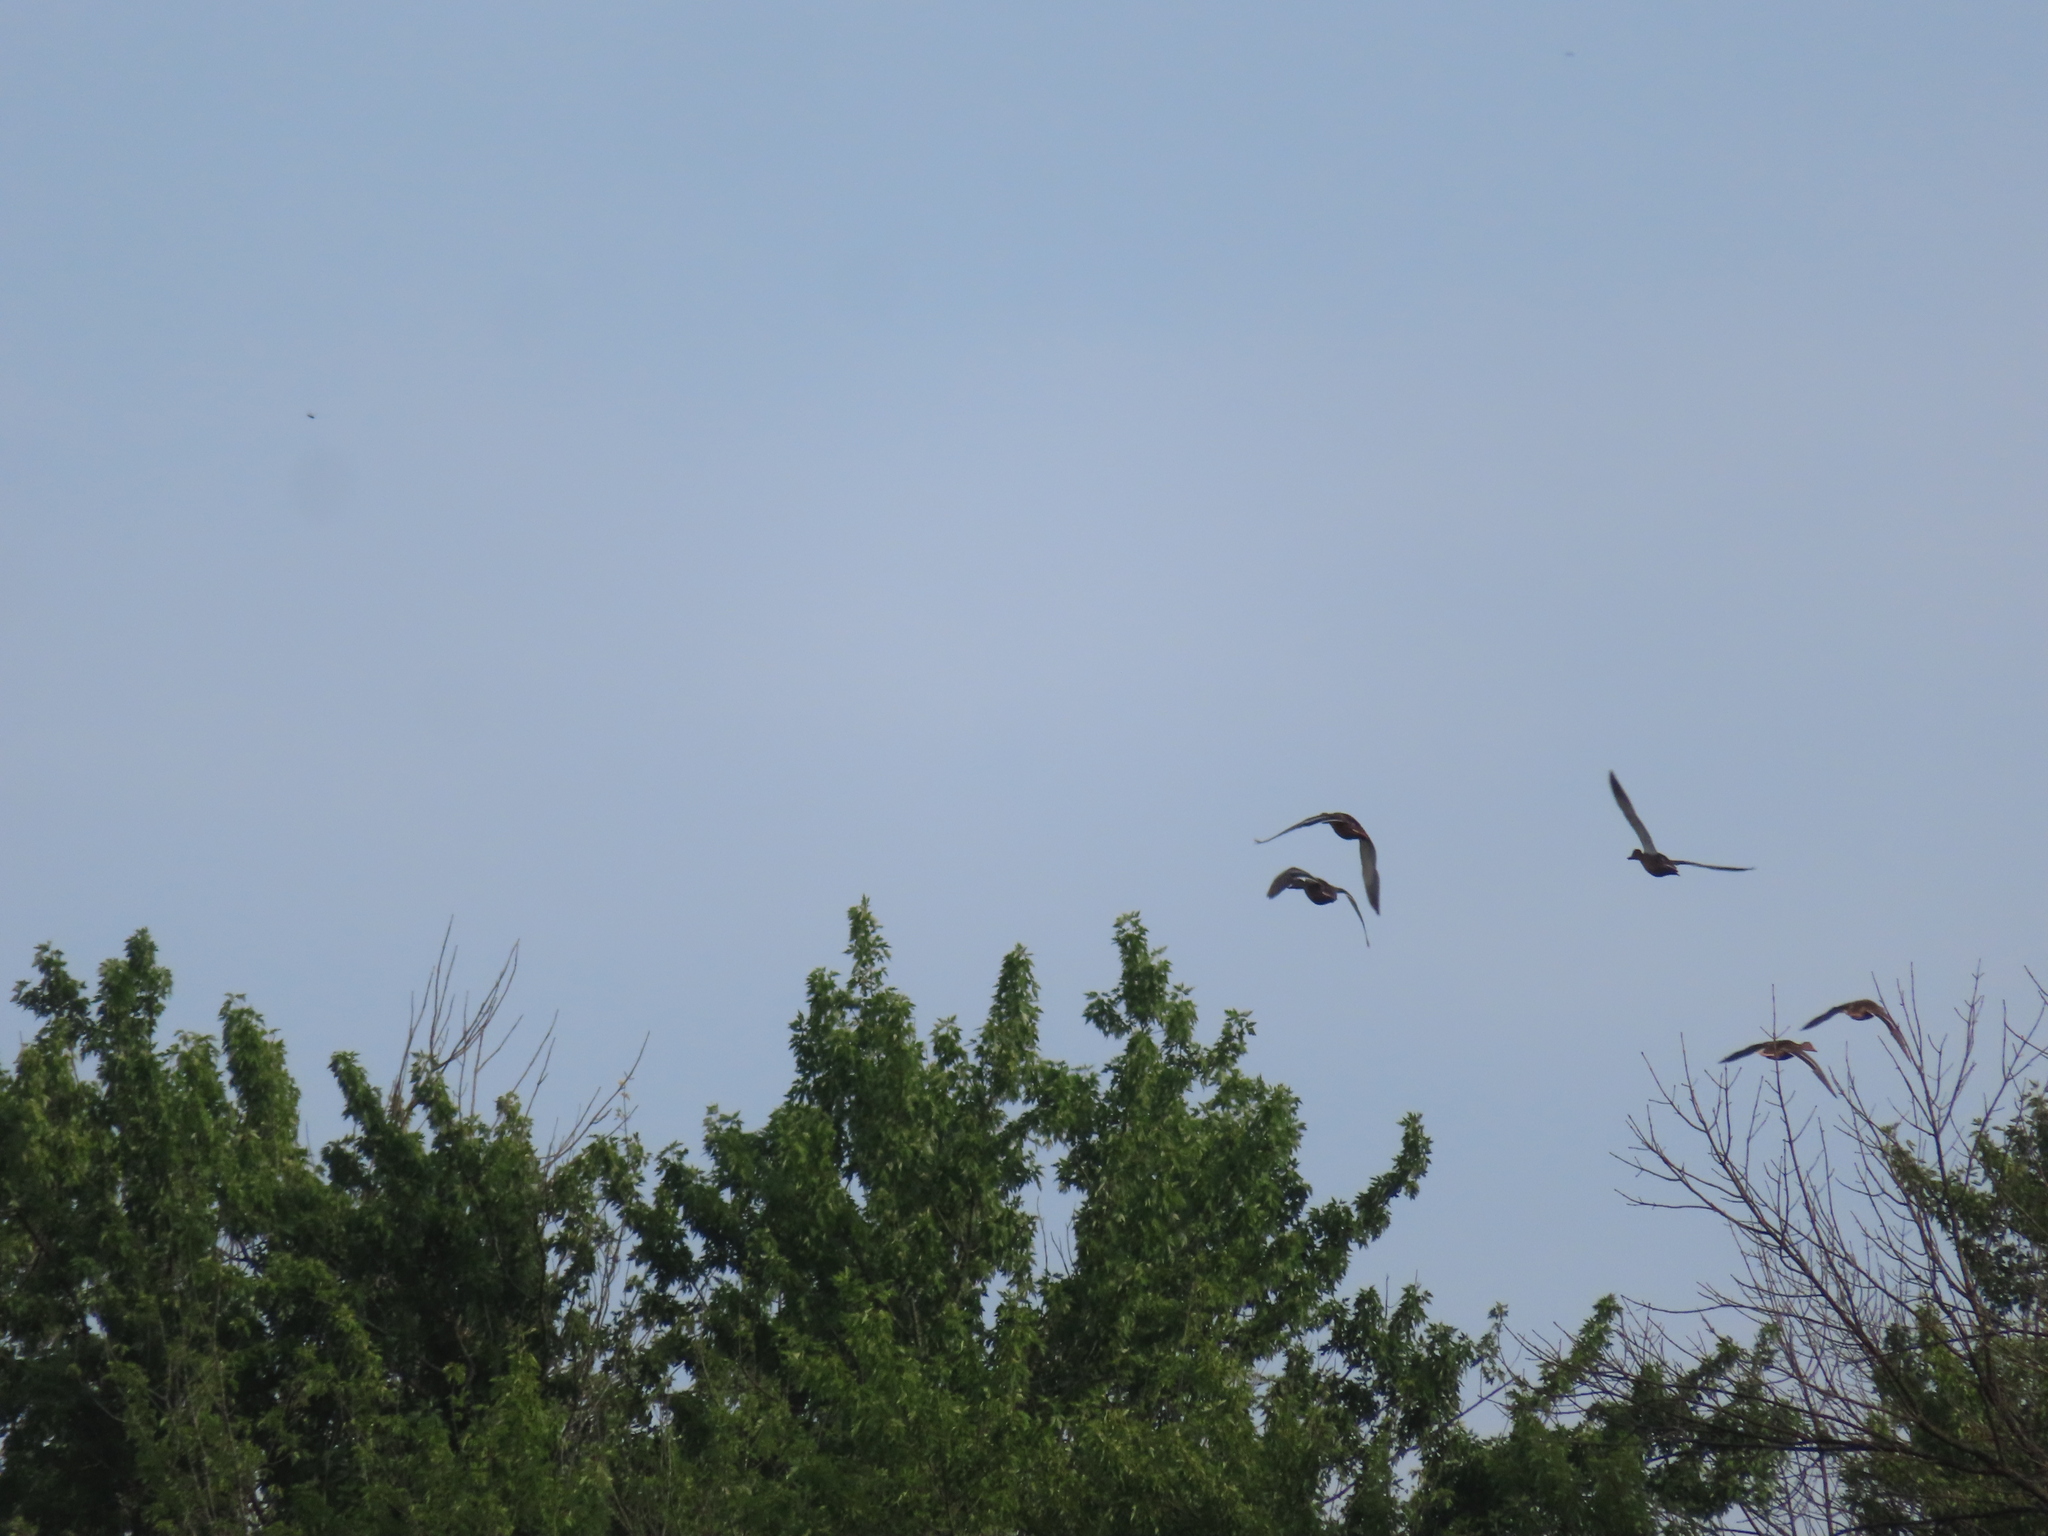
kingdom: Animalia
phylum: Chordata
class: Aves
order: Anseriformes
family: Anatidae
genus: Anas
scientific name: Anas platyrhynchos
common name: Mallard
